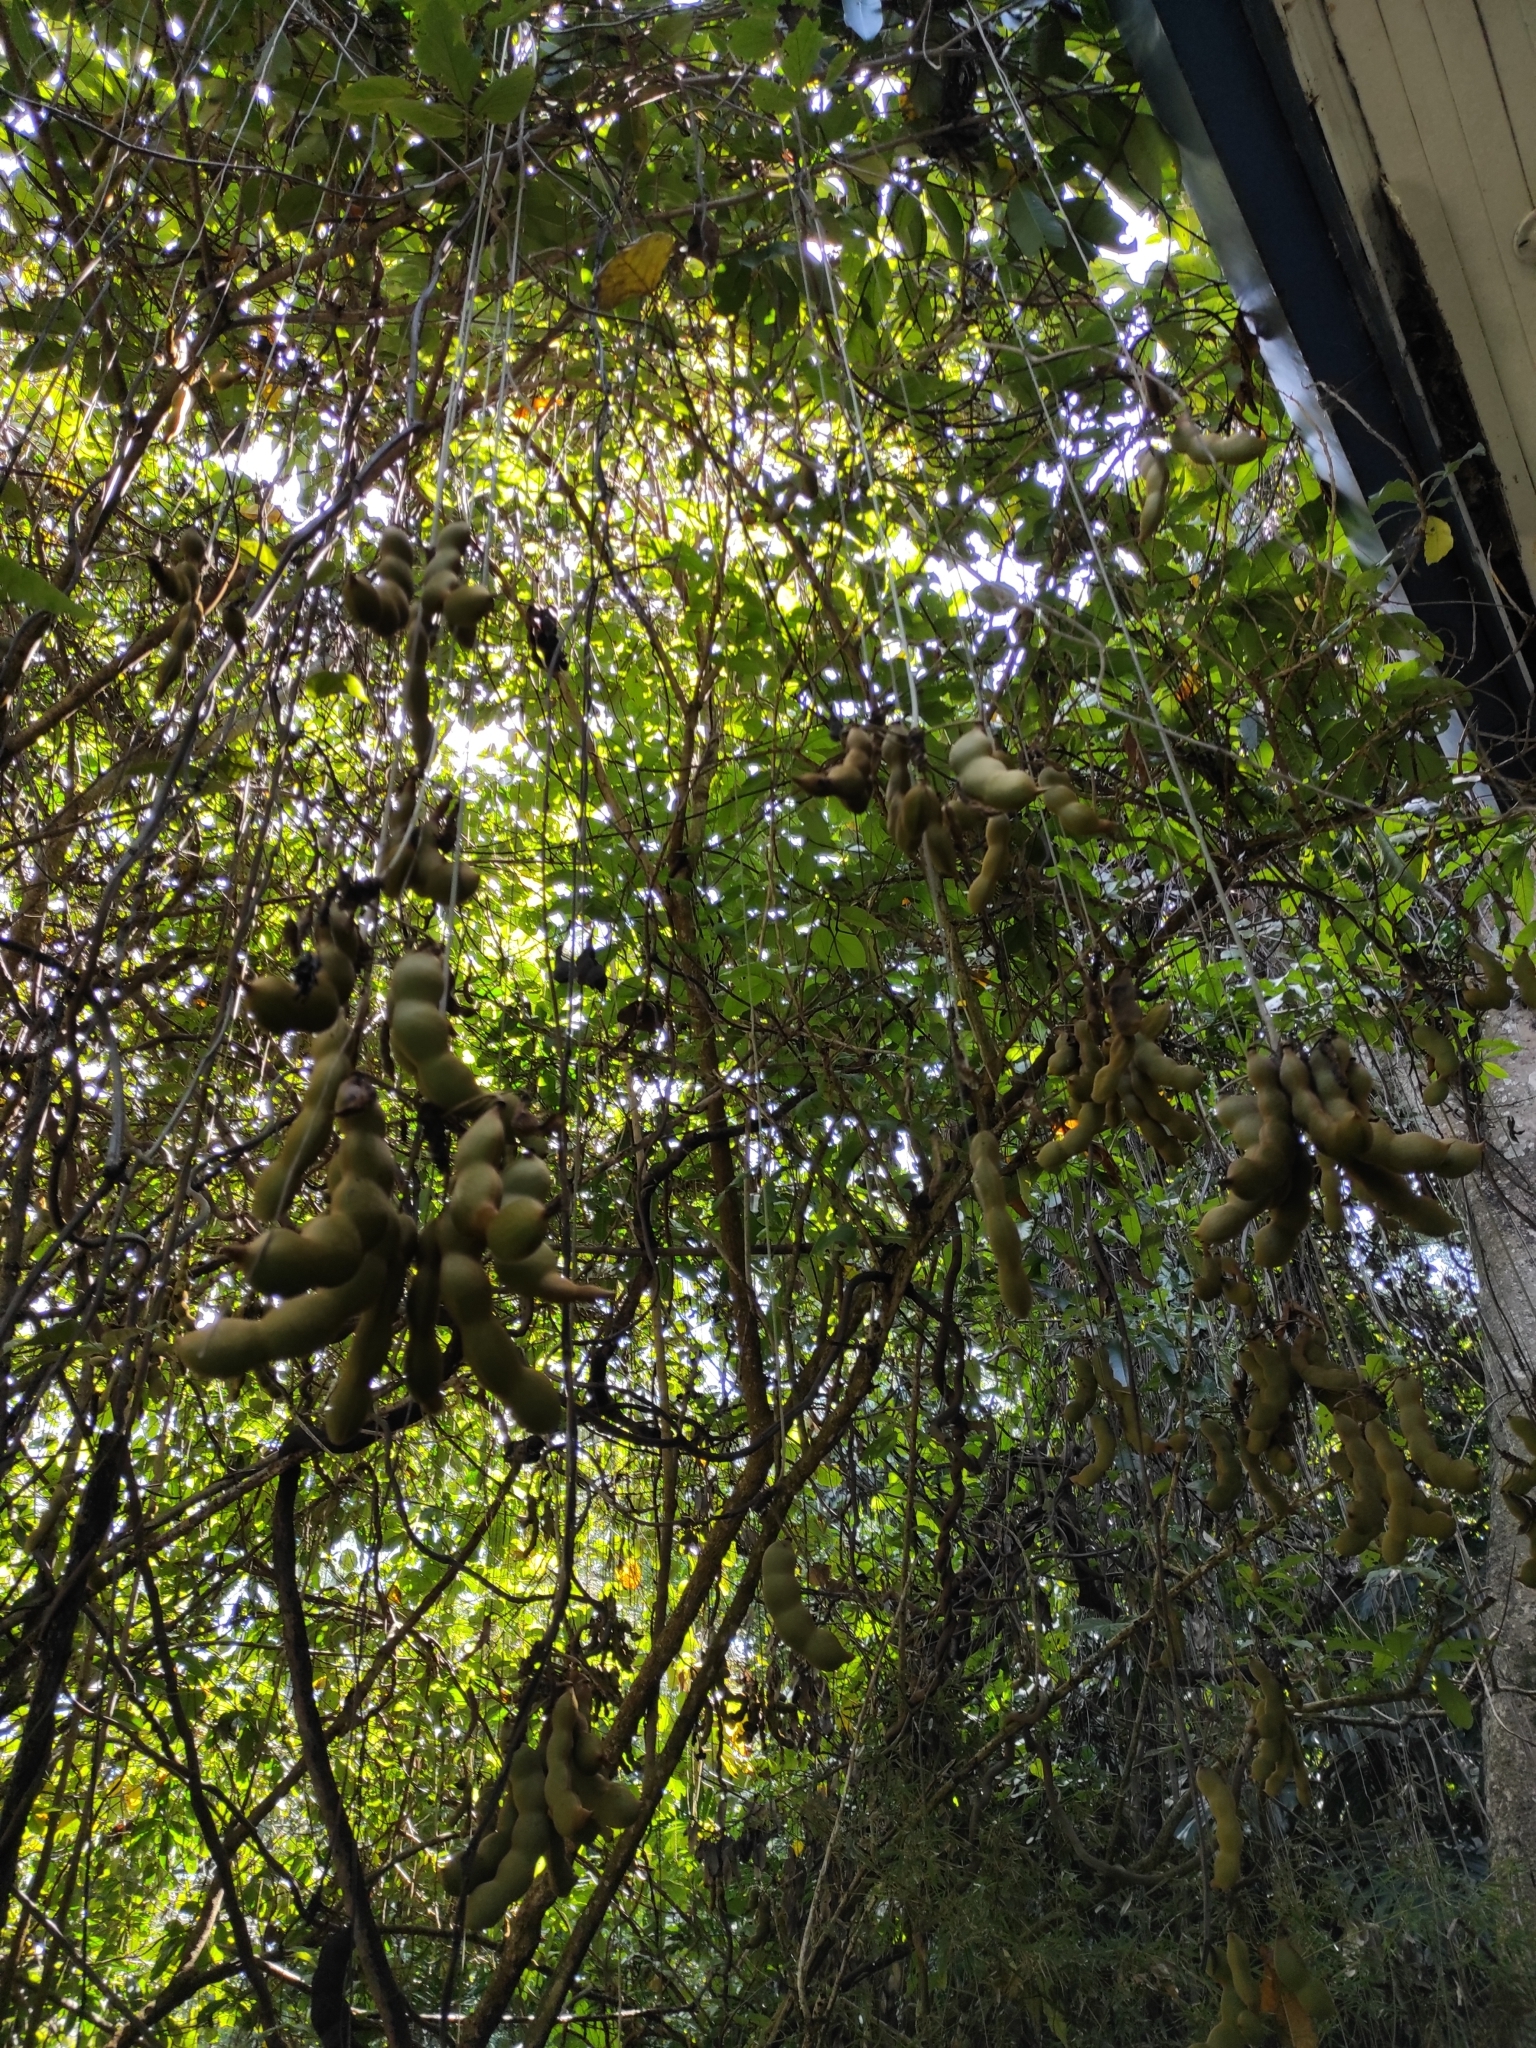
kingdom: Plantae
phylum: Tracheophyta
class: Magnoliopsida
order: Fabales
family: Fabaceae
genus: Mucuna
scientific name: Mucuna holtonii
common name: Hamburger bean
